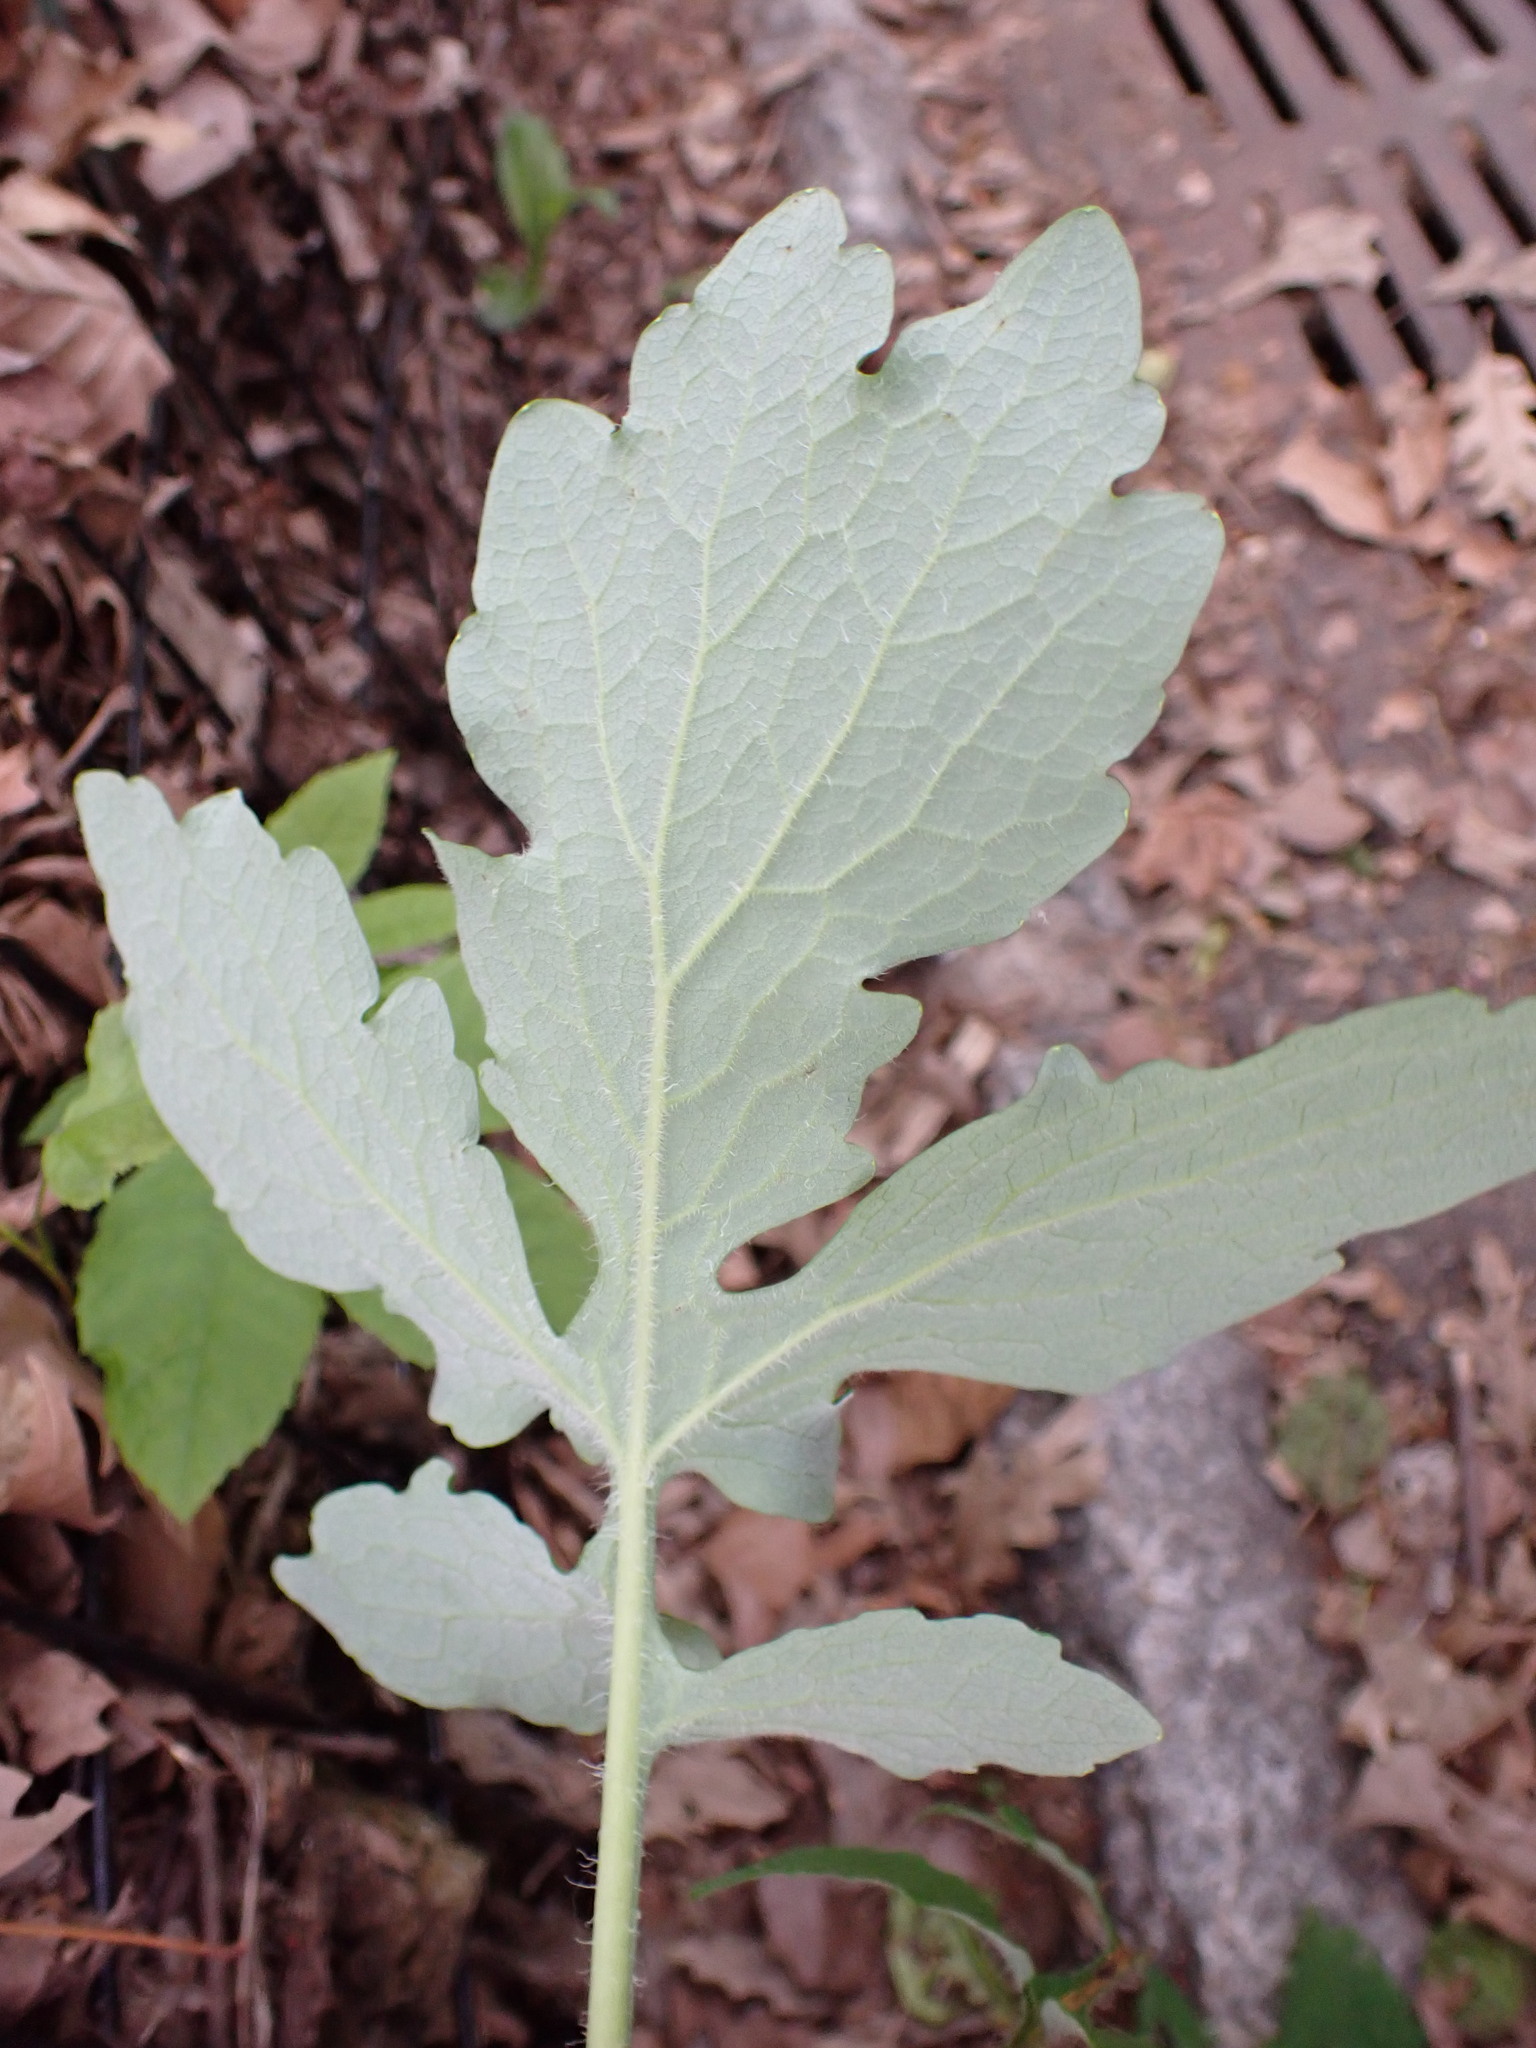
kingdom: Plantae
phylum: Tracheophyta
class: Magnoliopsida
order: Ranunculales
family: Papaveraceae
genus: Stylophorum
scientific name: Stylophorum diphyllum
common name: Celandine poppy
